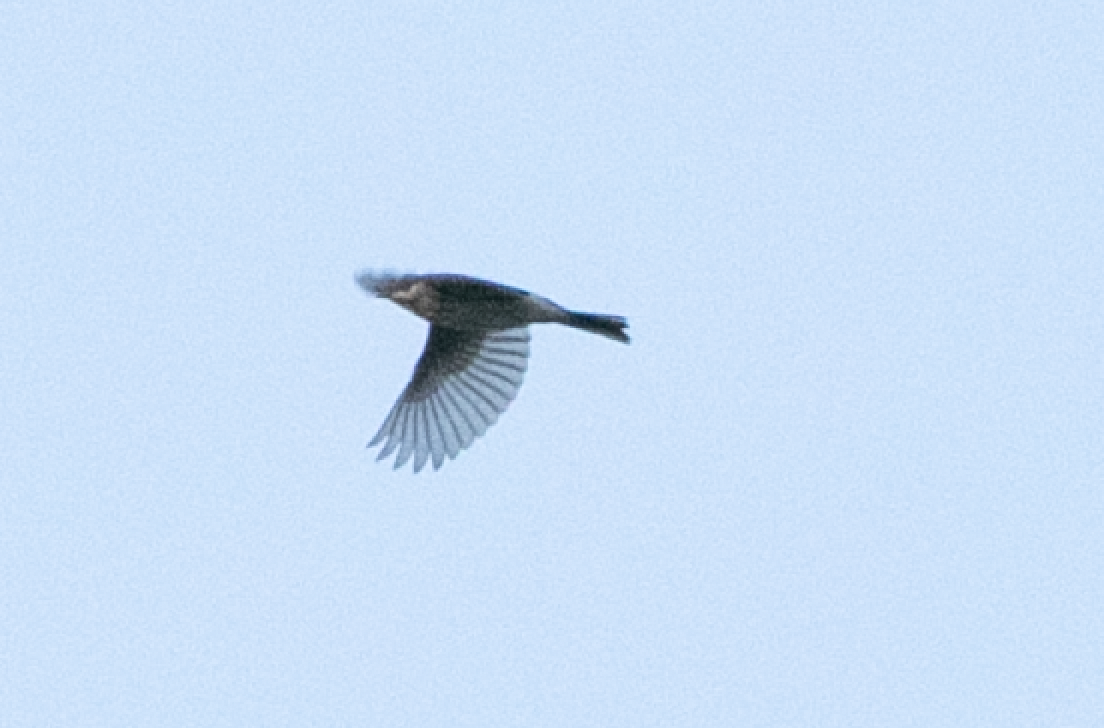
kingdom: Animalia
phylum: Chordata
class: Aves
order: Passeriformes
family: Emberizidae
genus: Emberiza
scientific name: Emberiza schoeniclus
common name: Reed bunting
